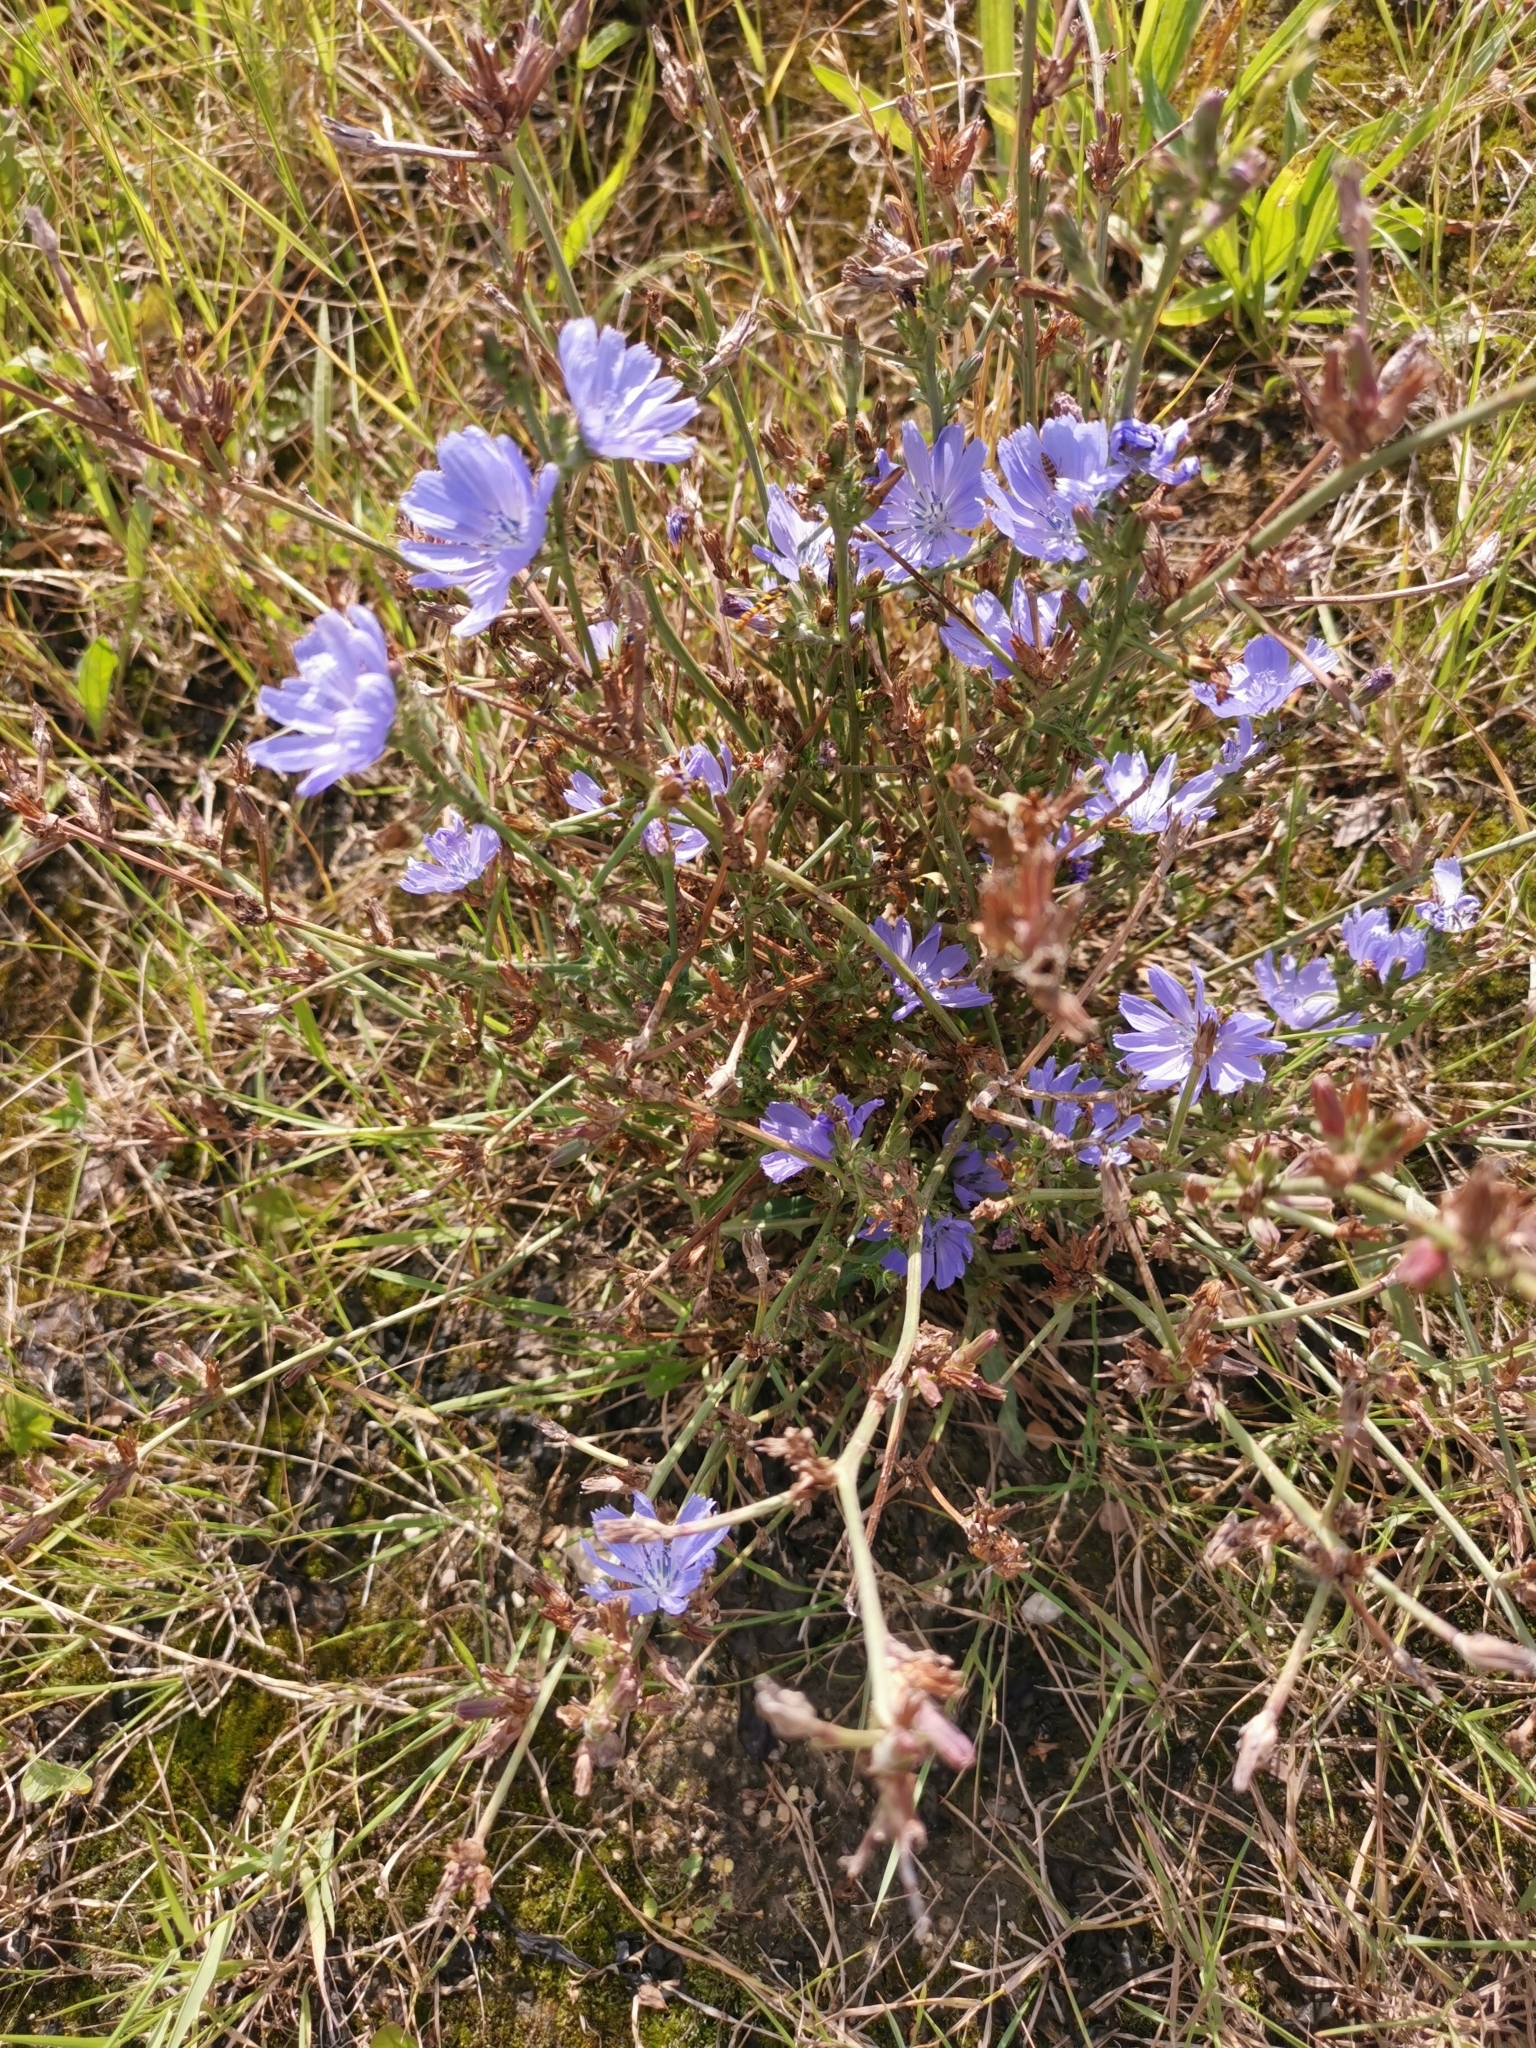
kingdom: Plantae
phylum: Tracheophyta
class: Magnoliopsida
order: Asterales
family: Asteraceae
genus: Cichorium
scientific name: Cichorium intybus
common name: Chicory
